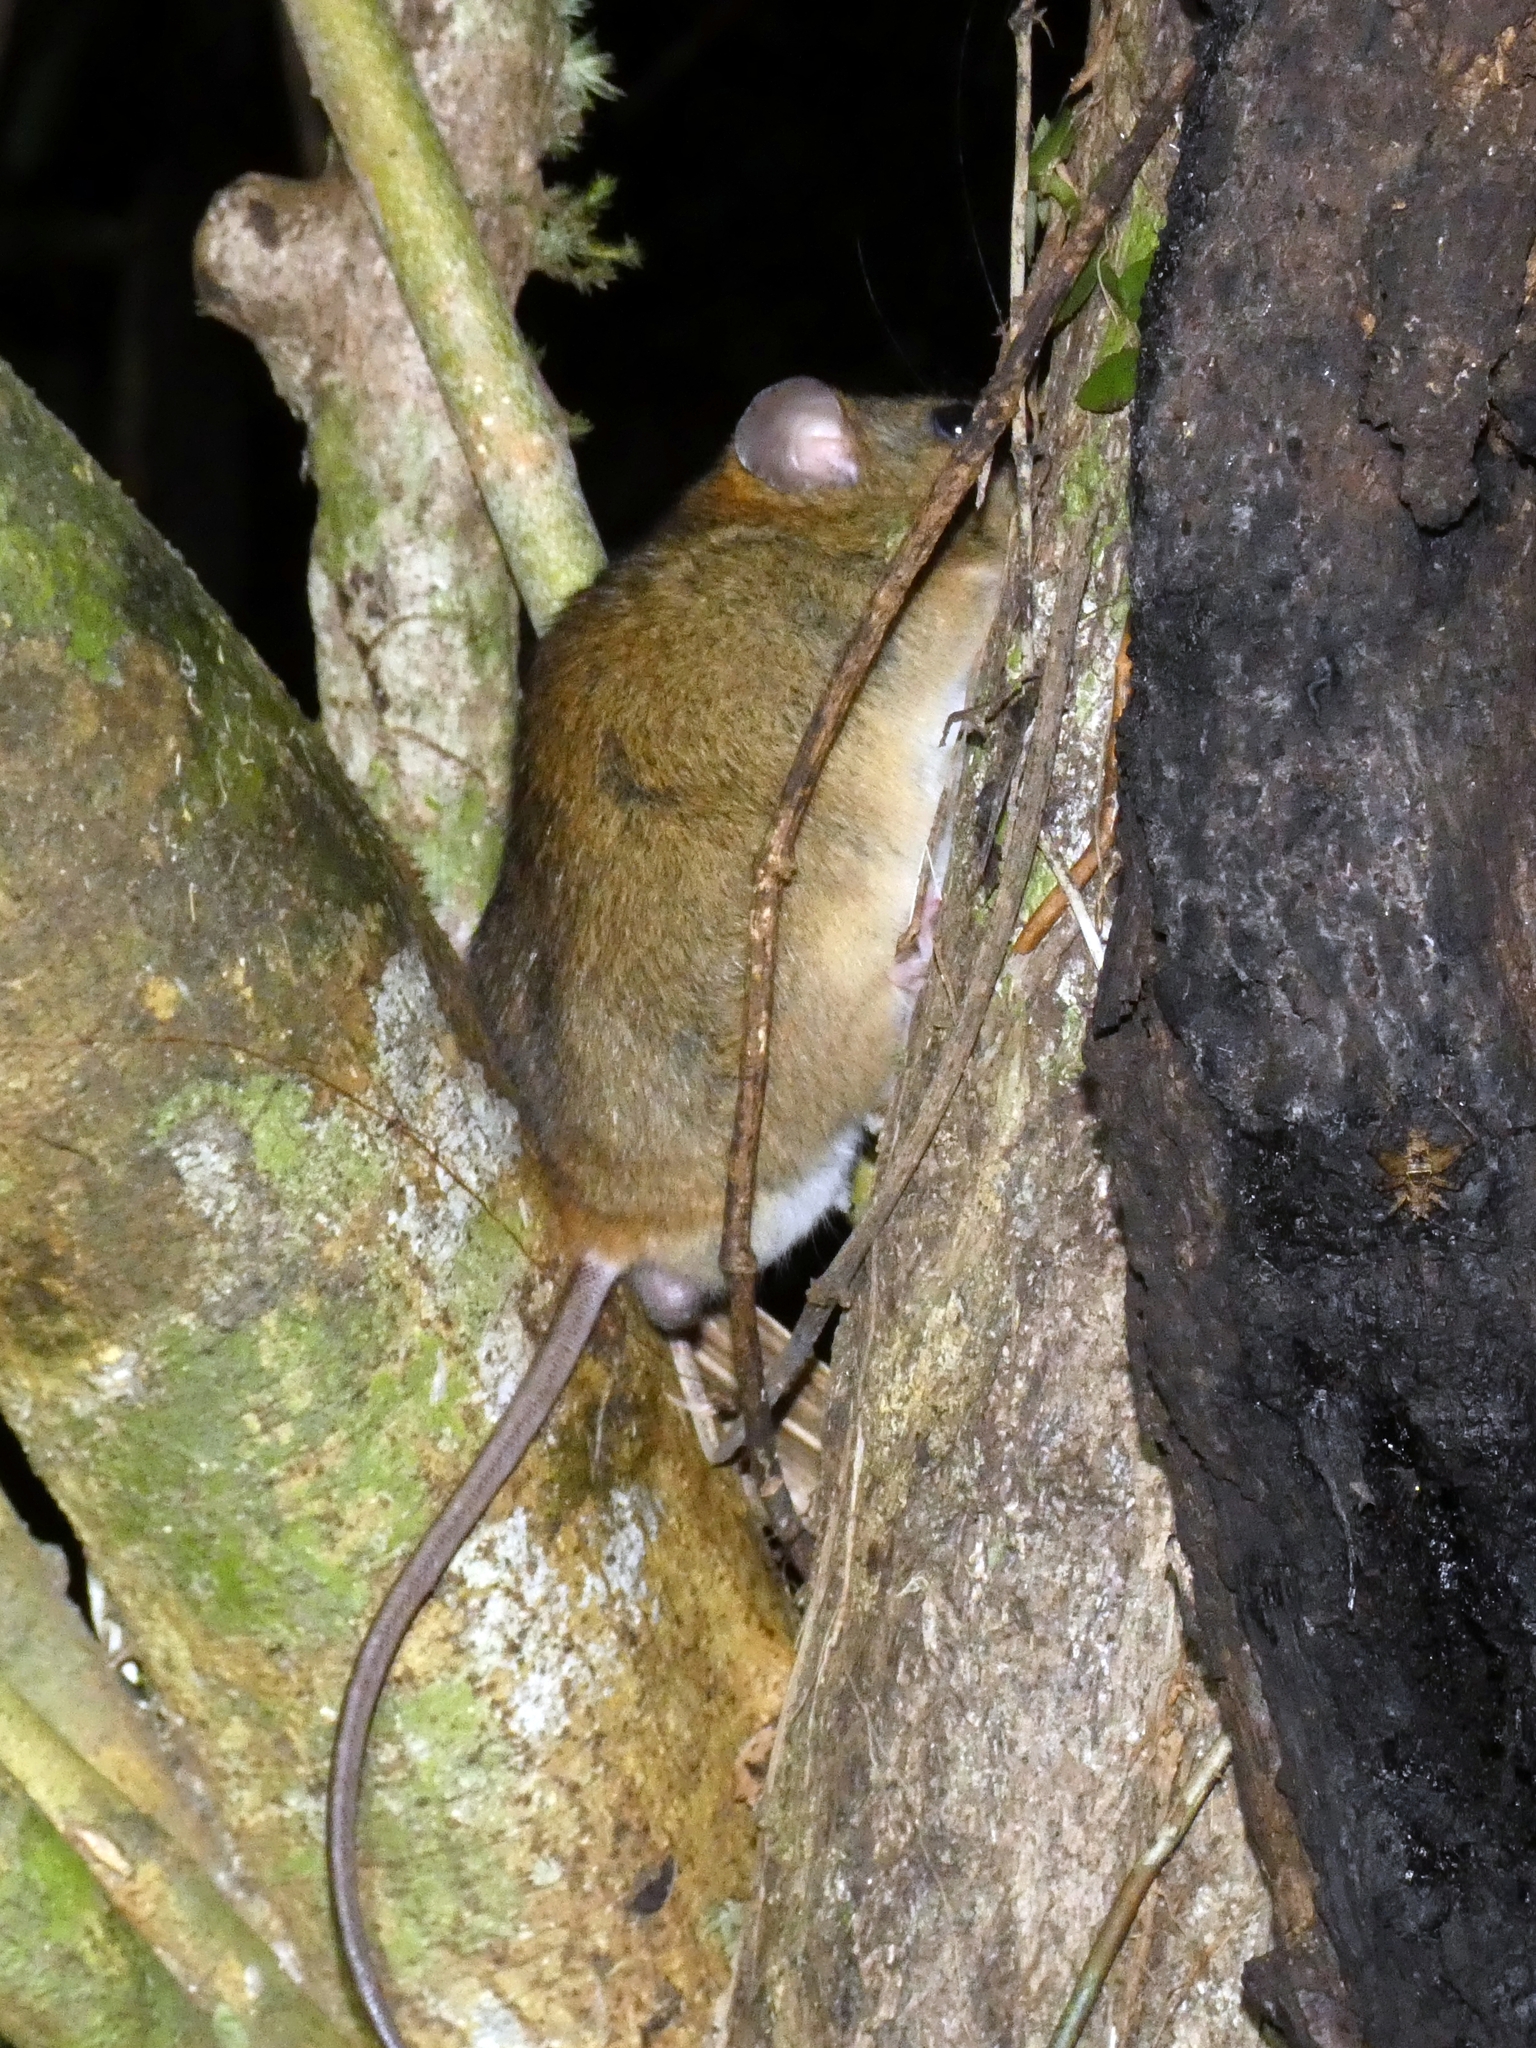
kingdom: Animalia
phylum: Chordata
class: Mammalia
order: Rodentia
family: Muridae
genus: Melomys
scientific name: Melomys cervinipes
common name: Fawn-footed melomys
